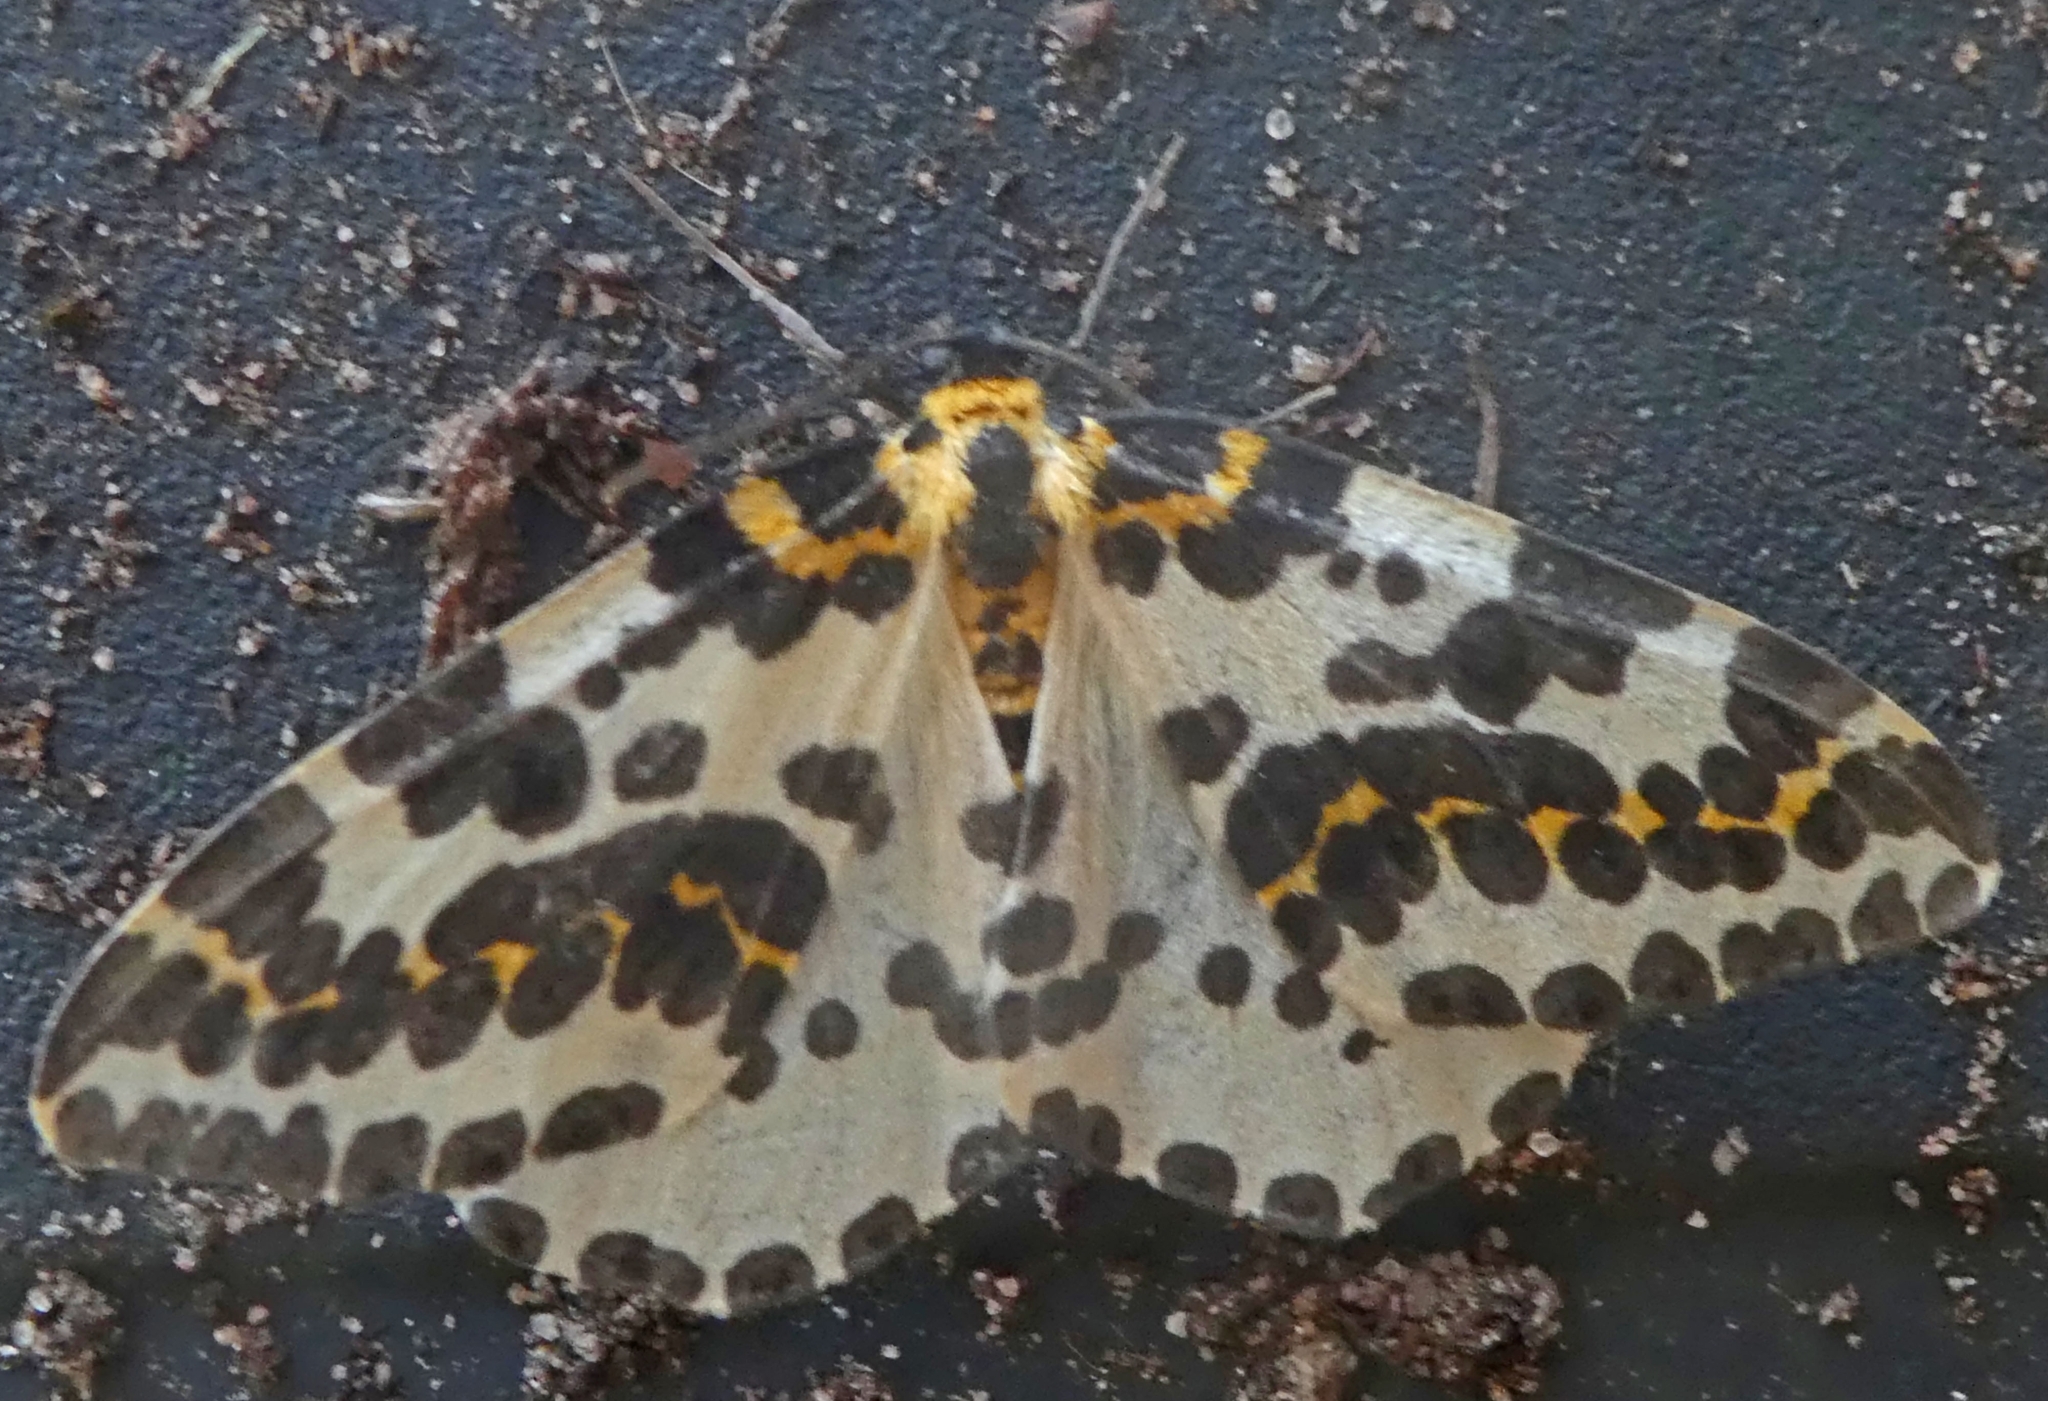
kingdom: Animalia
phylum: Arthropoda
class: Insecta
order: Lepidoptera
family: Geometridae
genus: Abraxas
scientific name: Abraxas grossulariata
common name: Magpie
